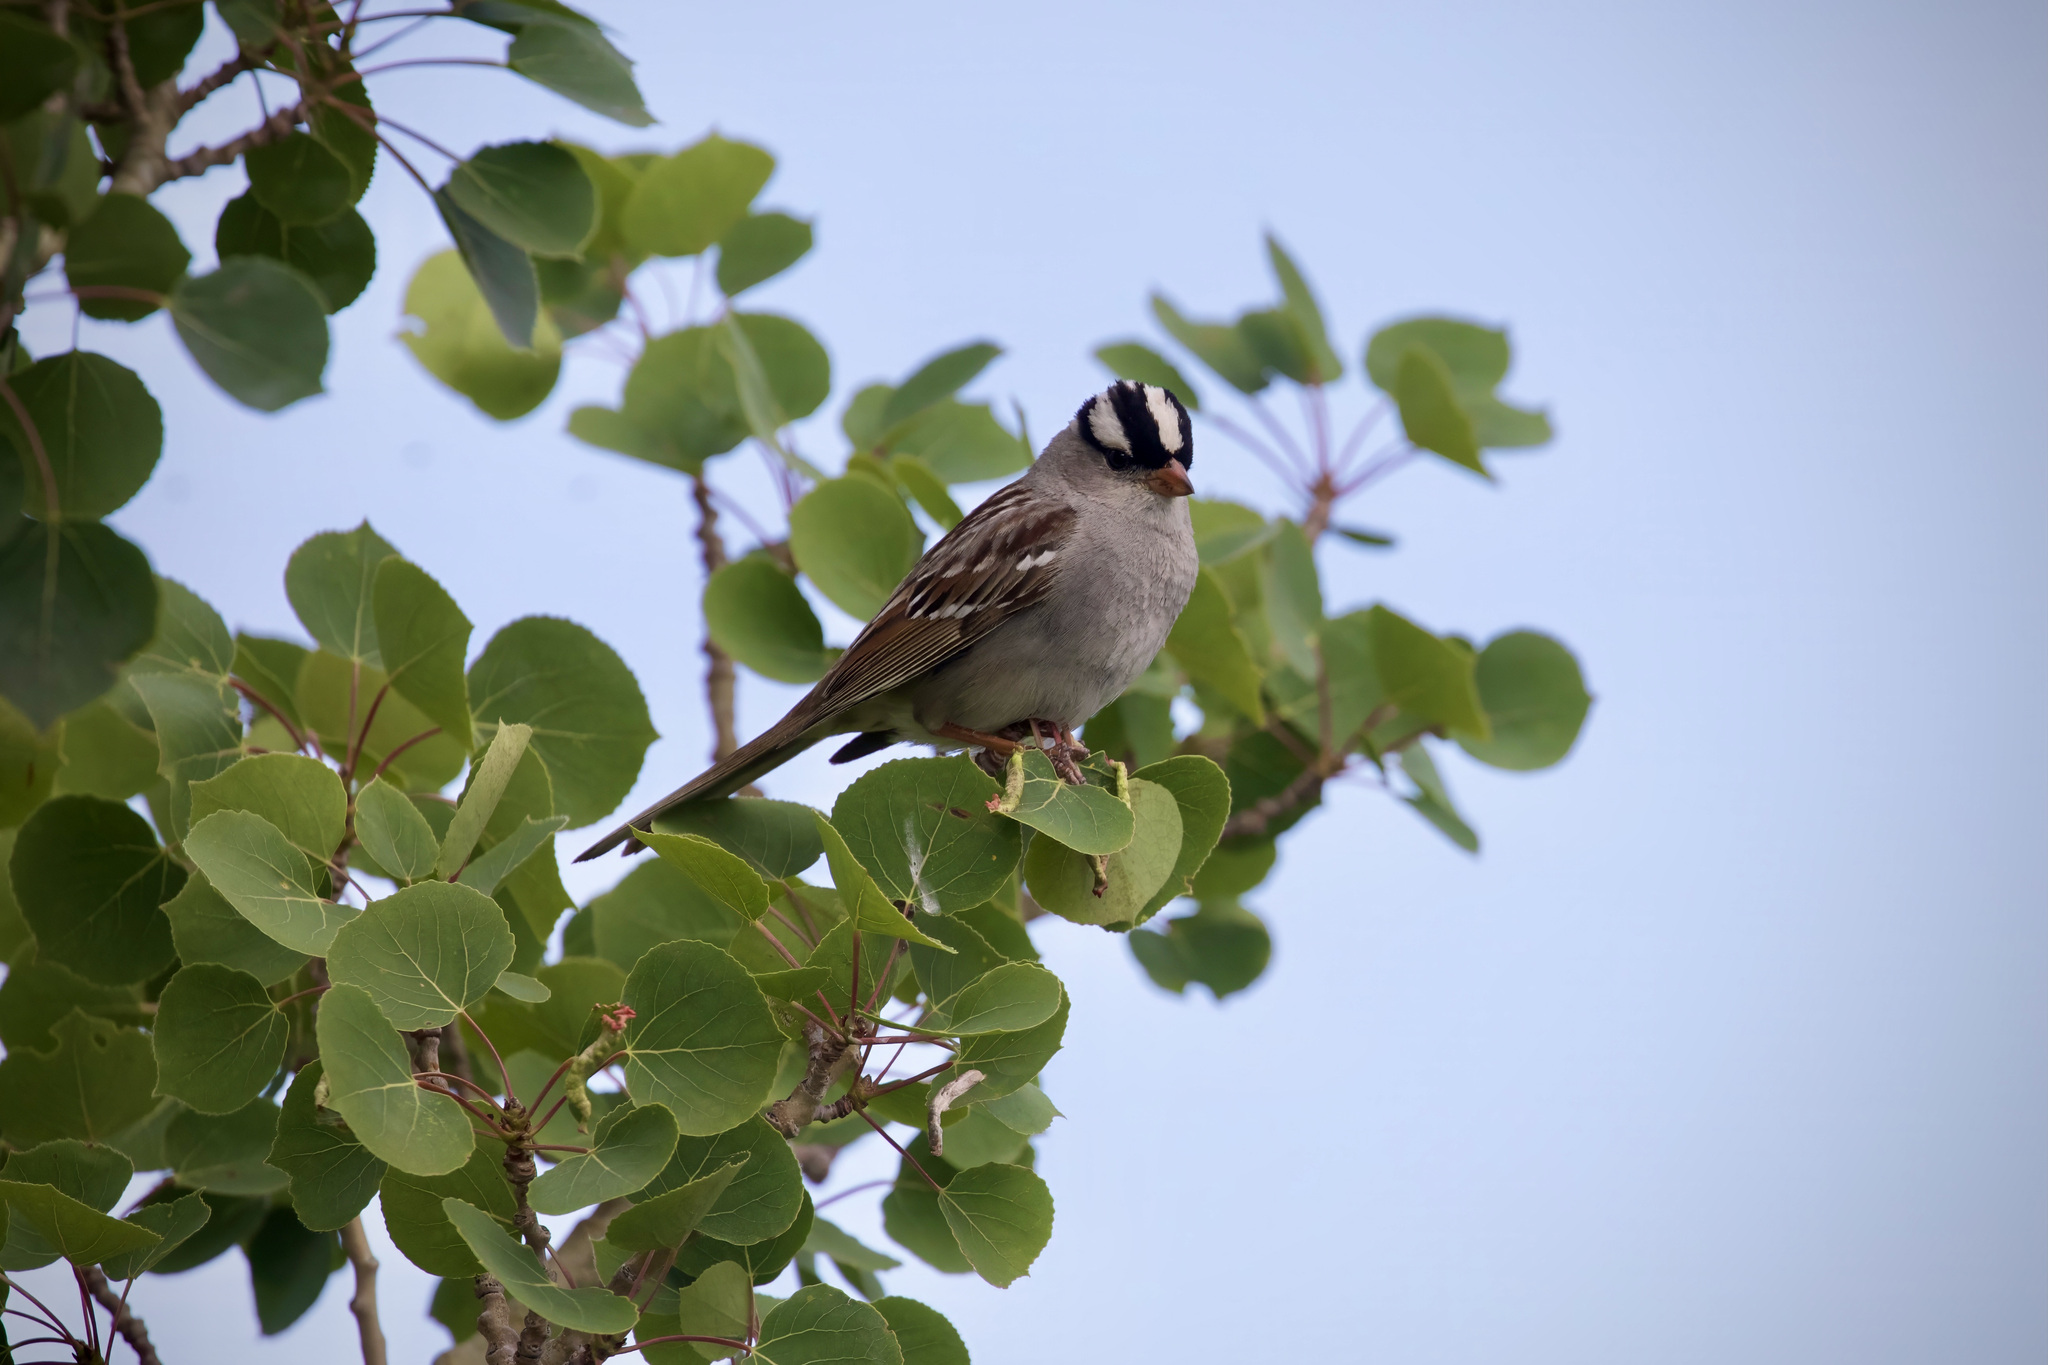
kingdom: Animalia
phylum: Chordata
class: Aves
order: Passeriformes
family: Passerellidae
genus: Zonotrichia
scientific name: Zonotrichia leucophrys
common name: White-crowned sparrow
